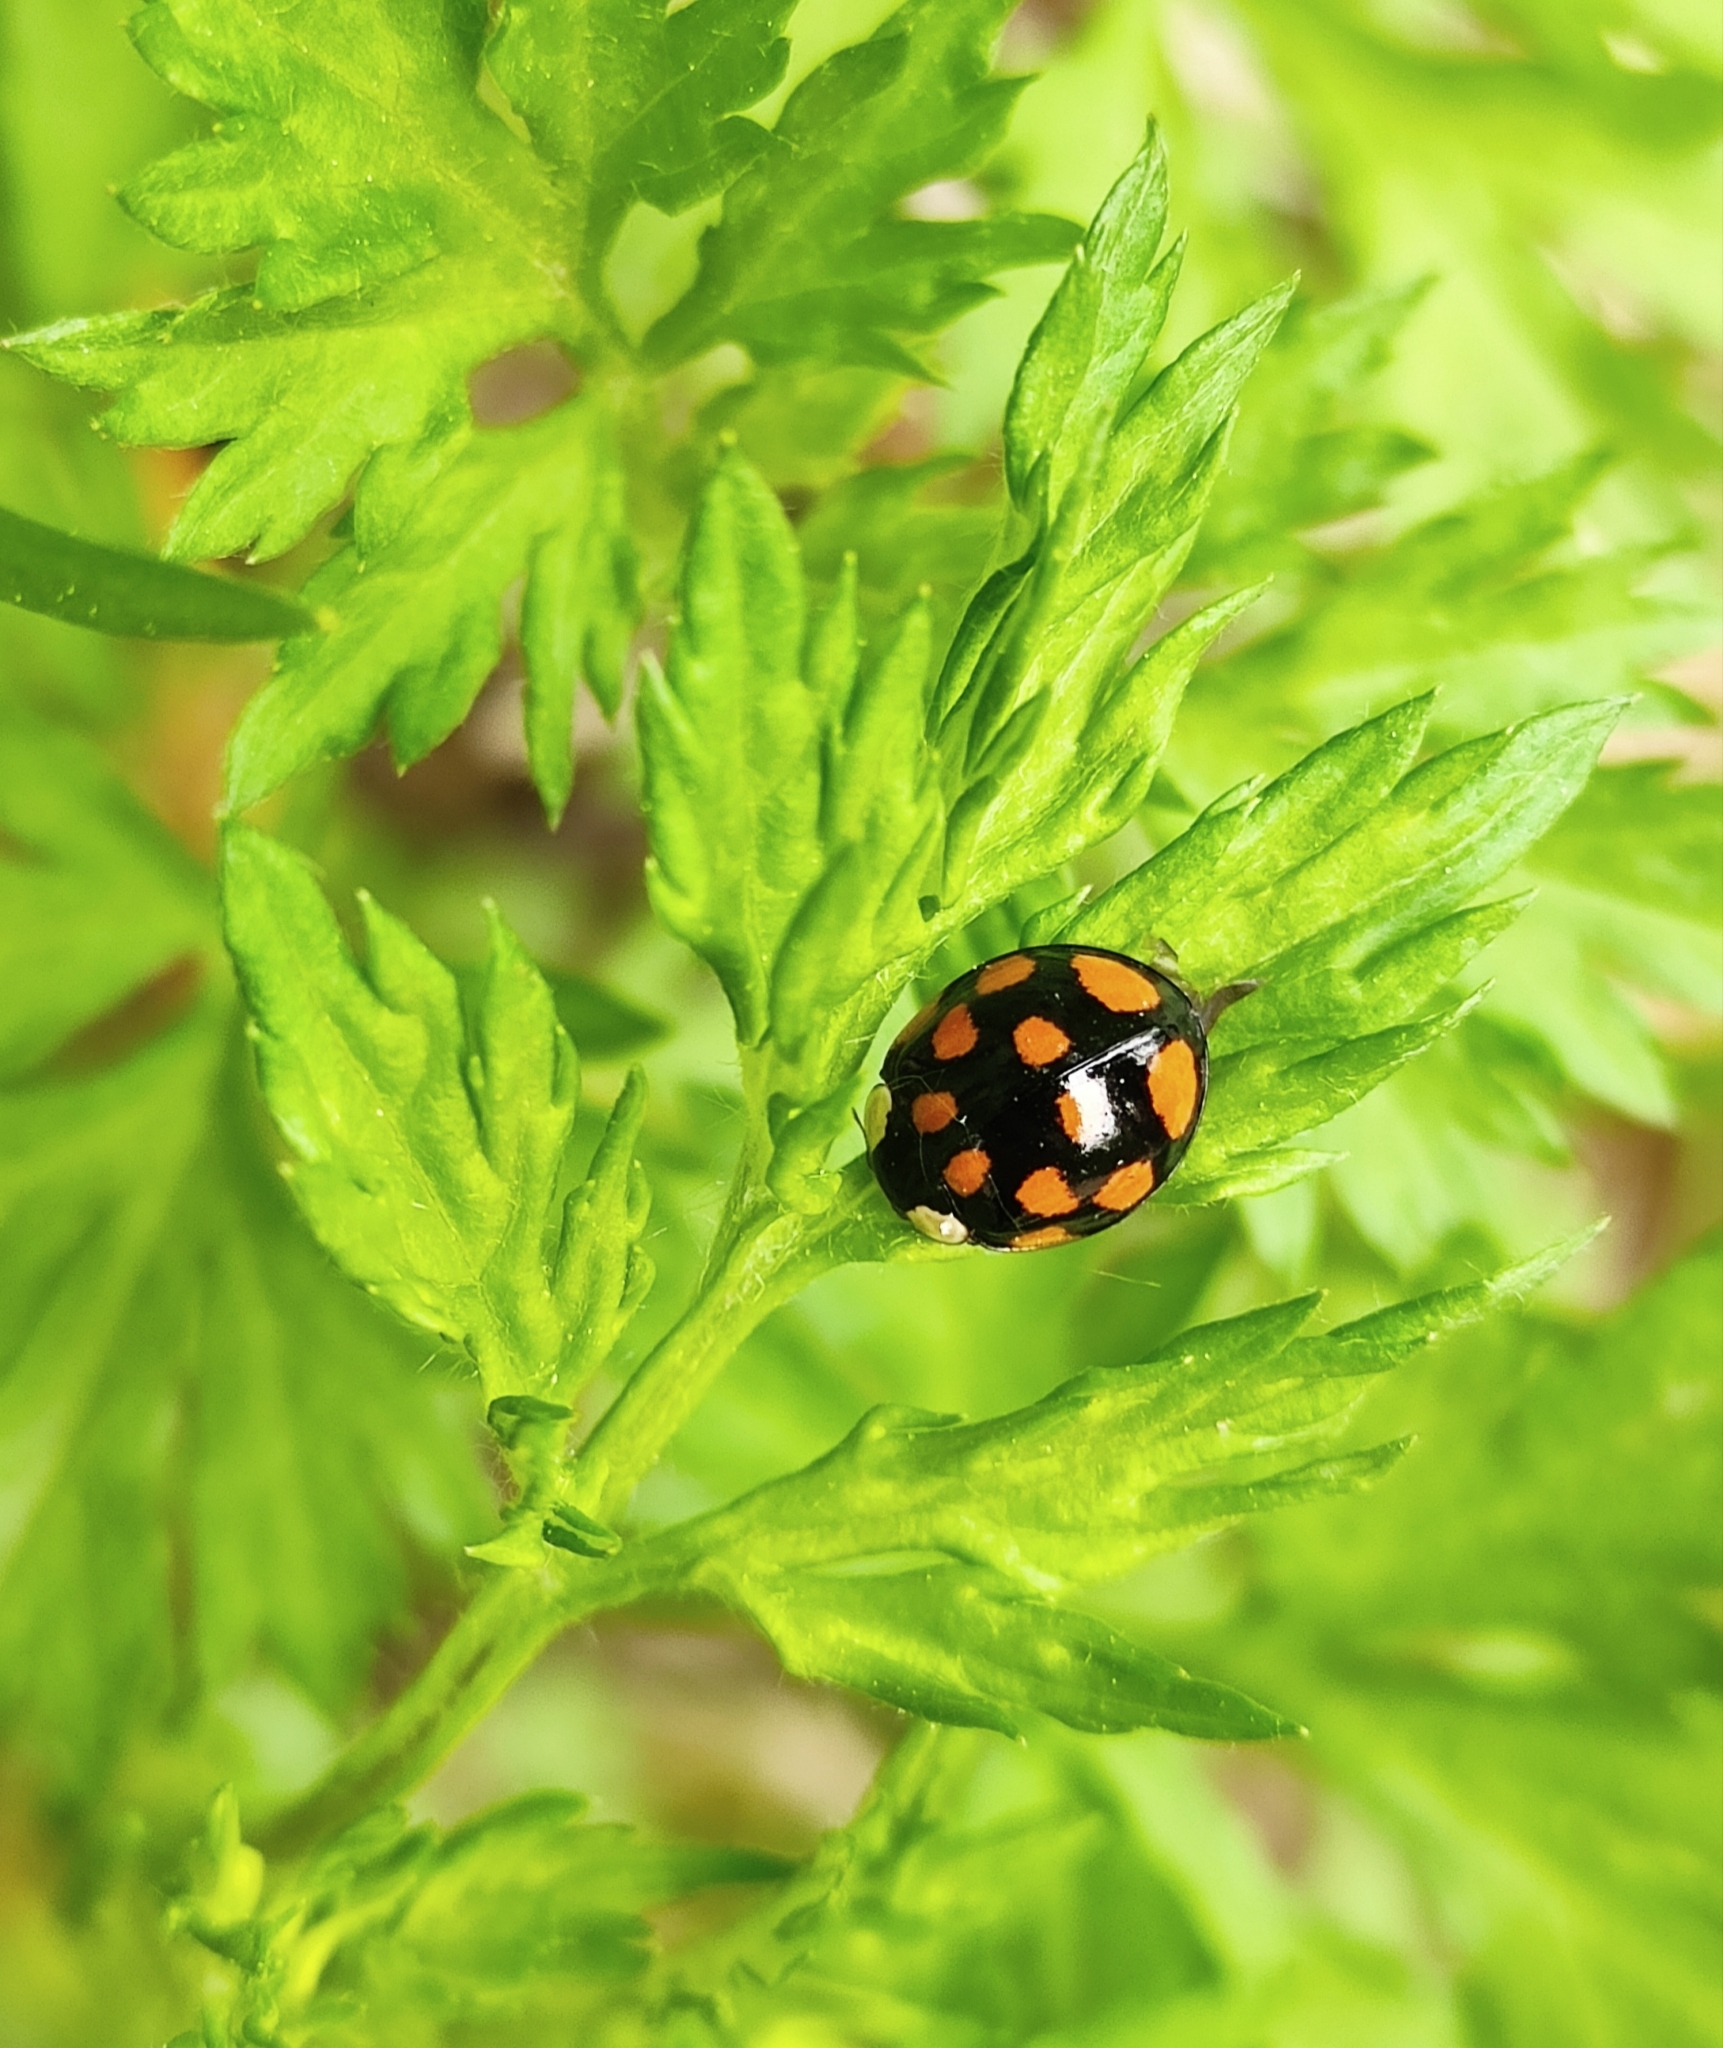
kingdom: Animalia
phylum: Arthropoda
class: Insecta
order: Coleoptera
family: Coccinellidae
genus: Harmonia
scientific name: Harmonia axyridis
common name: Harlequin ladybird
